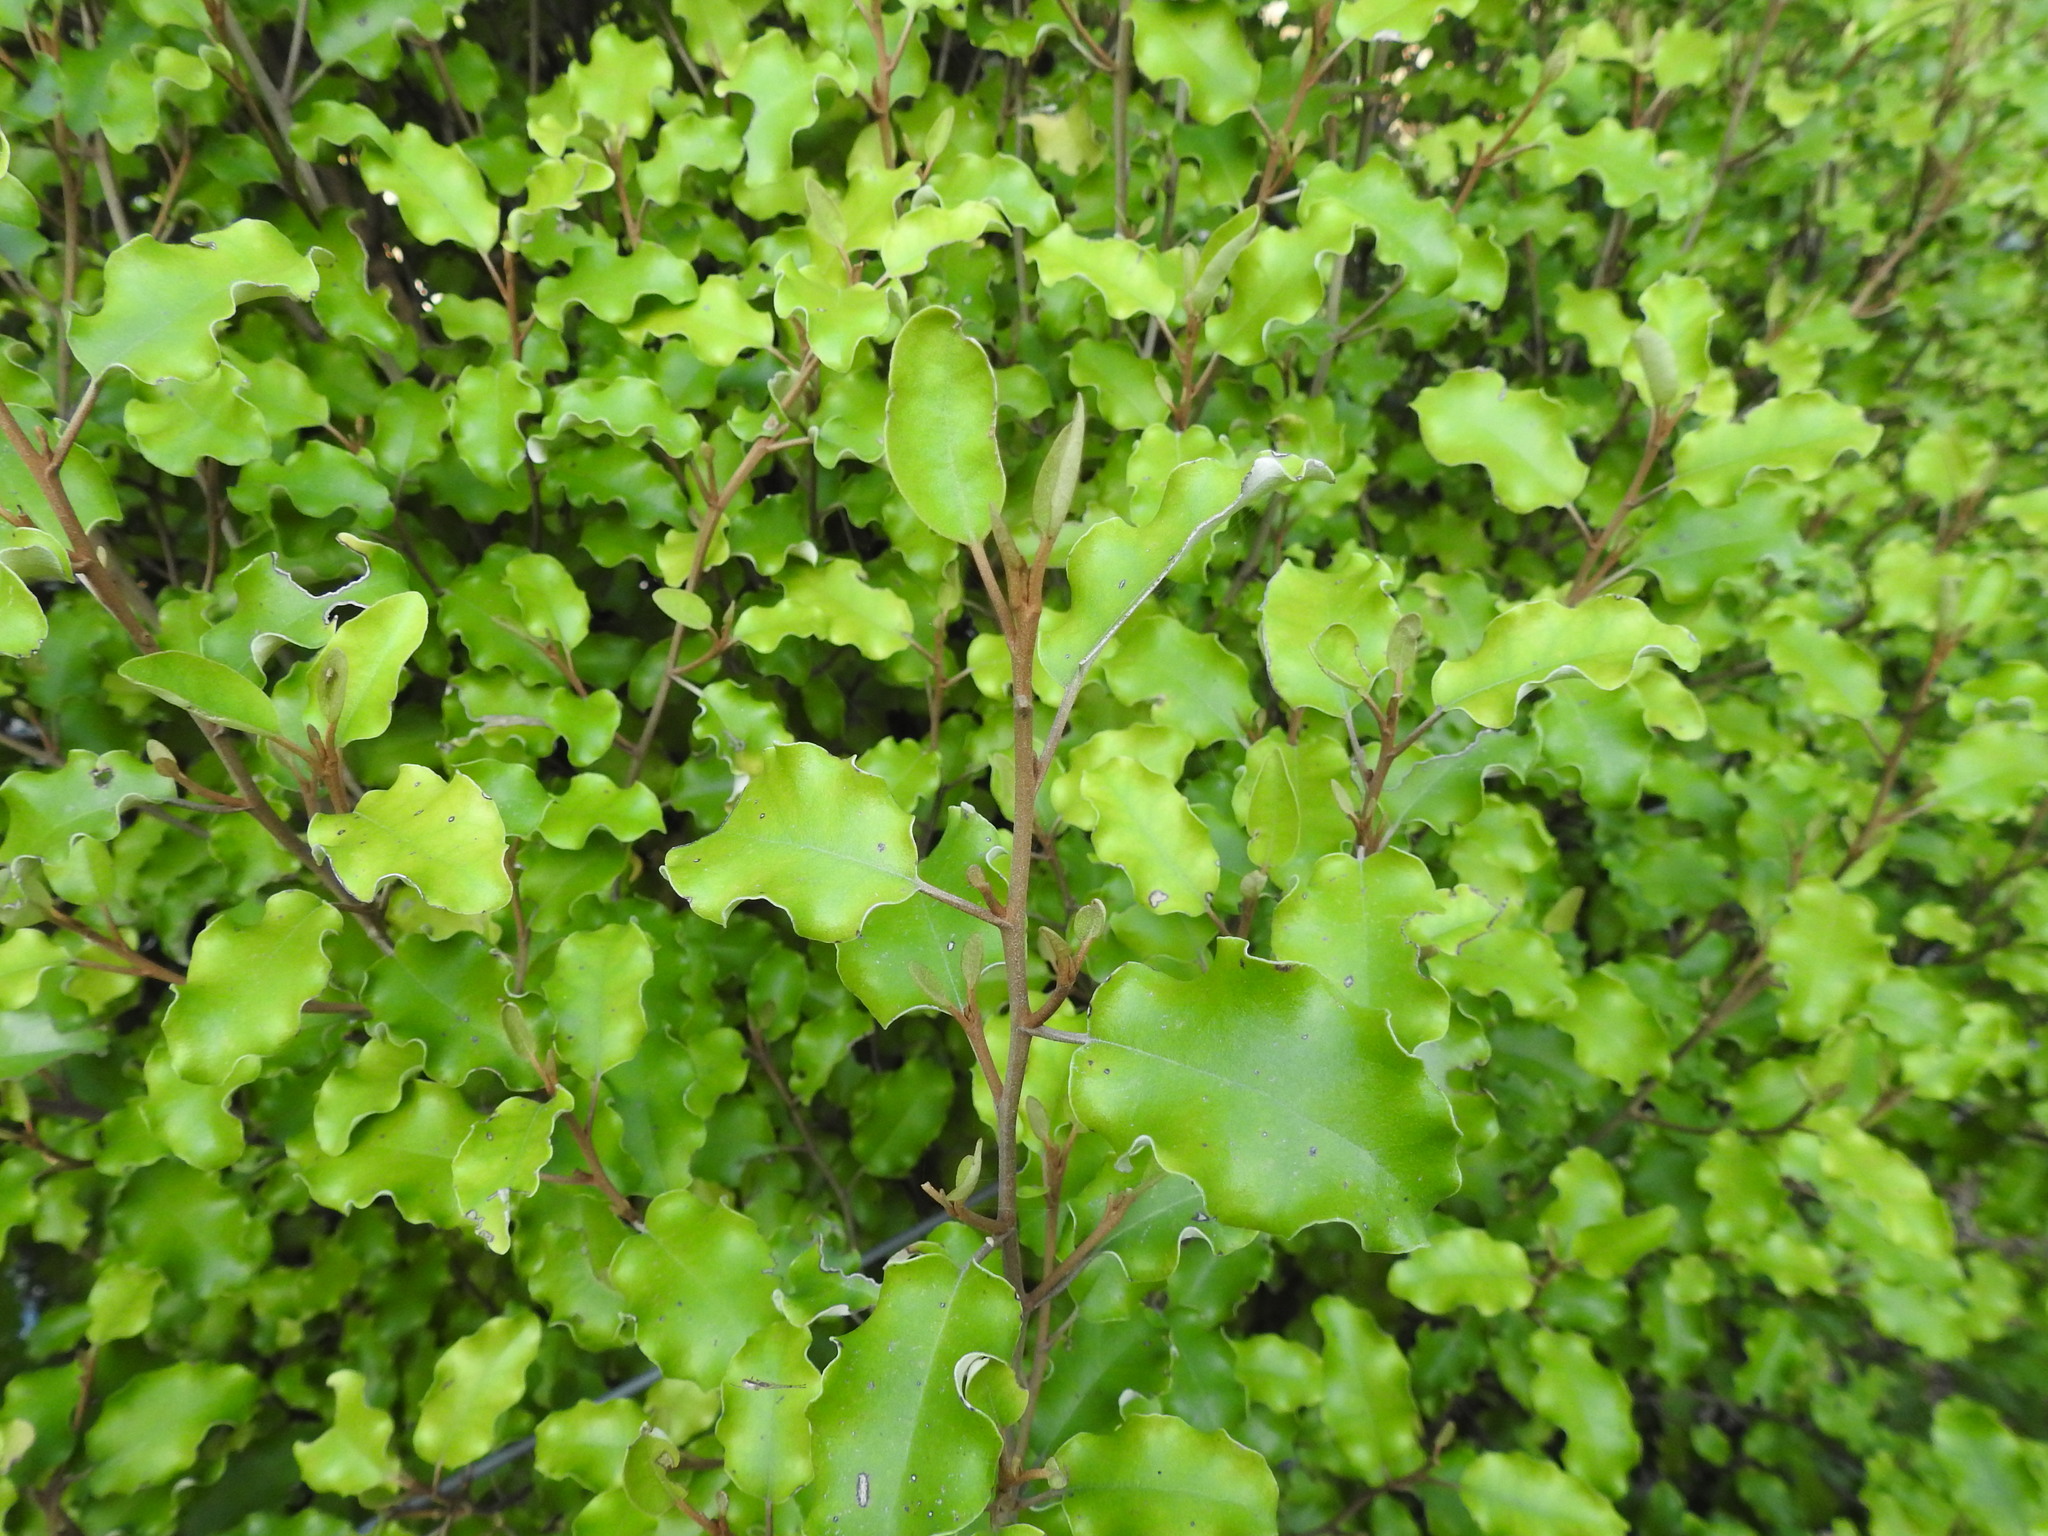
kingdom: Plantae
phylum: Tracheophyta
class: Magnoliopsida
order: Asterales
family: Asteraceae
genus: Olearia
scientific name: Olearia paniculata
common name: Akiraho
